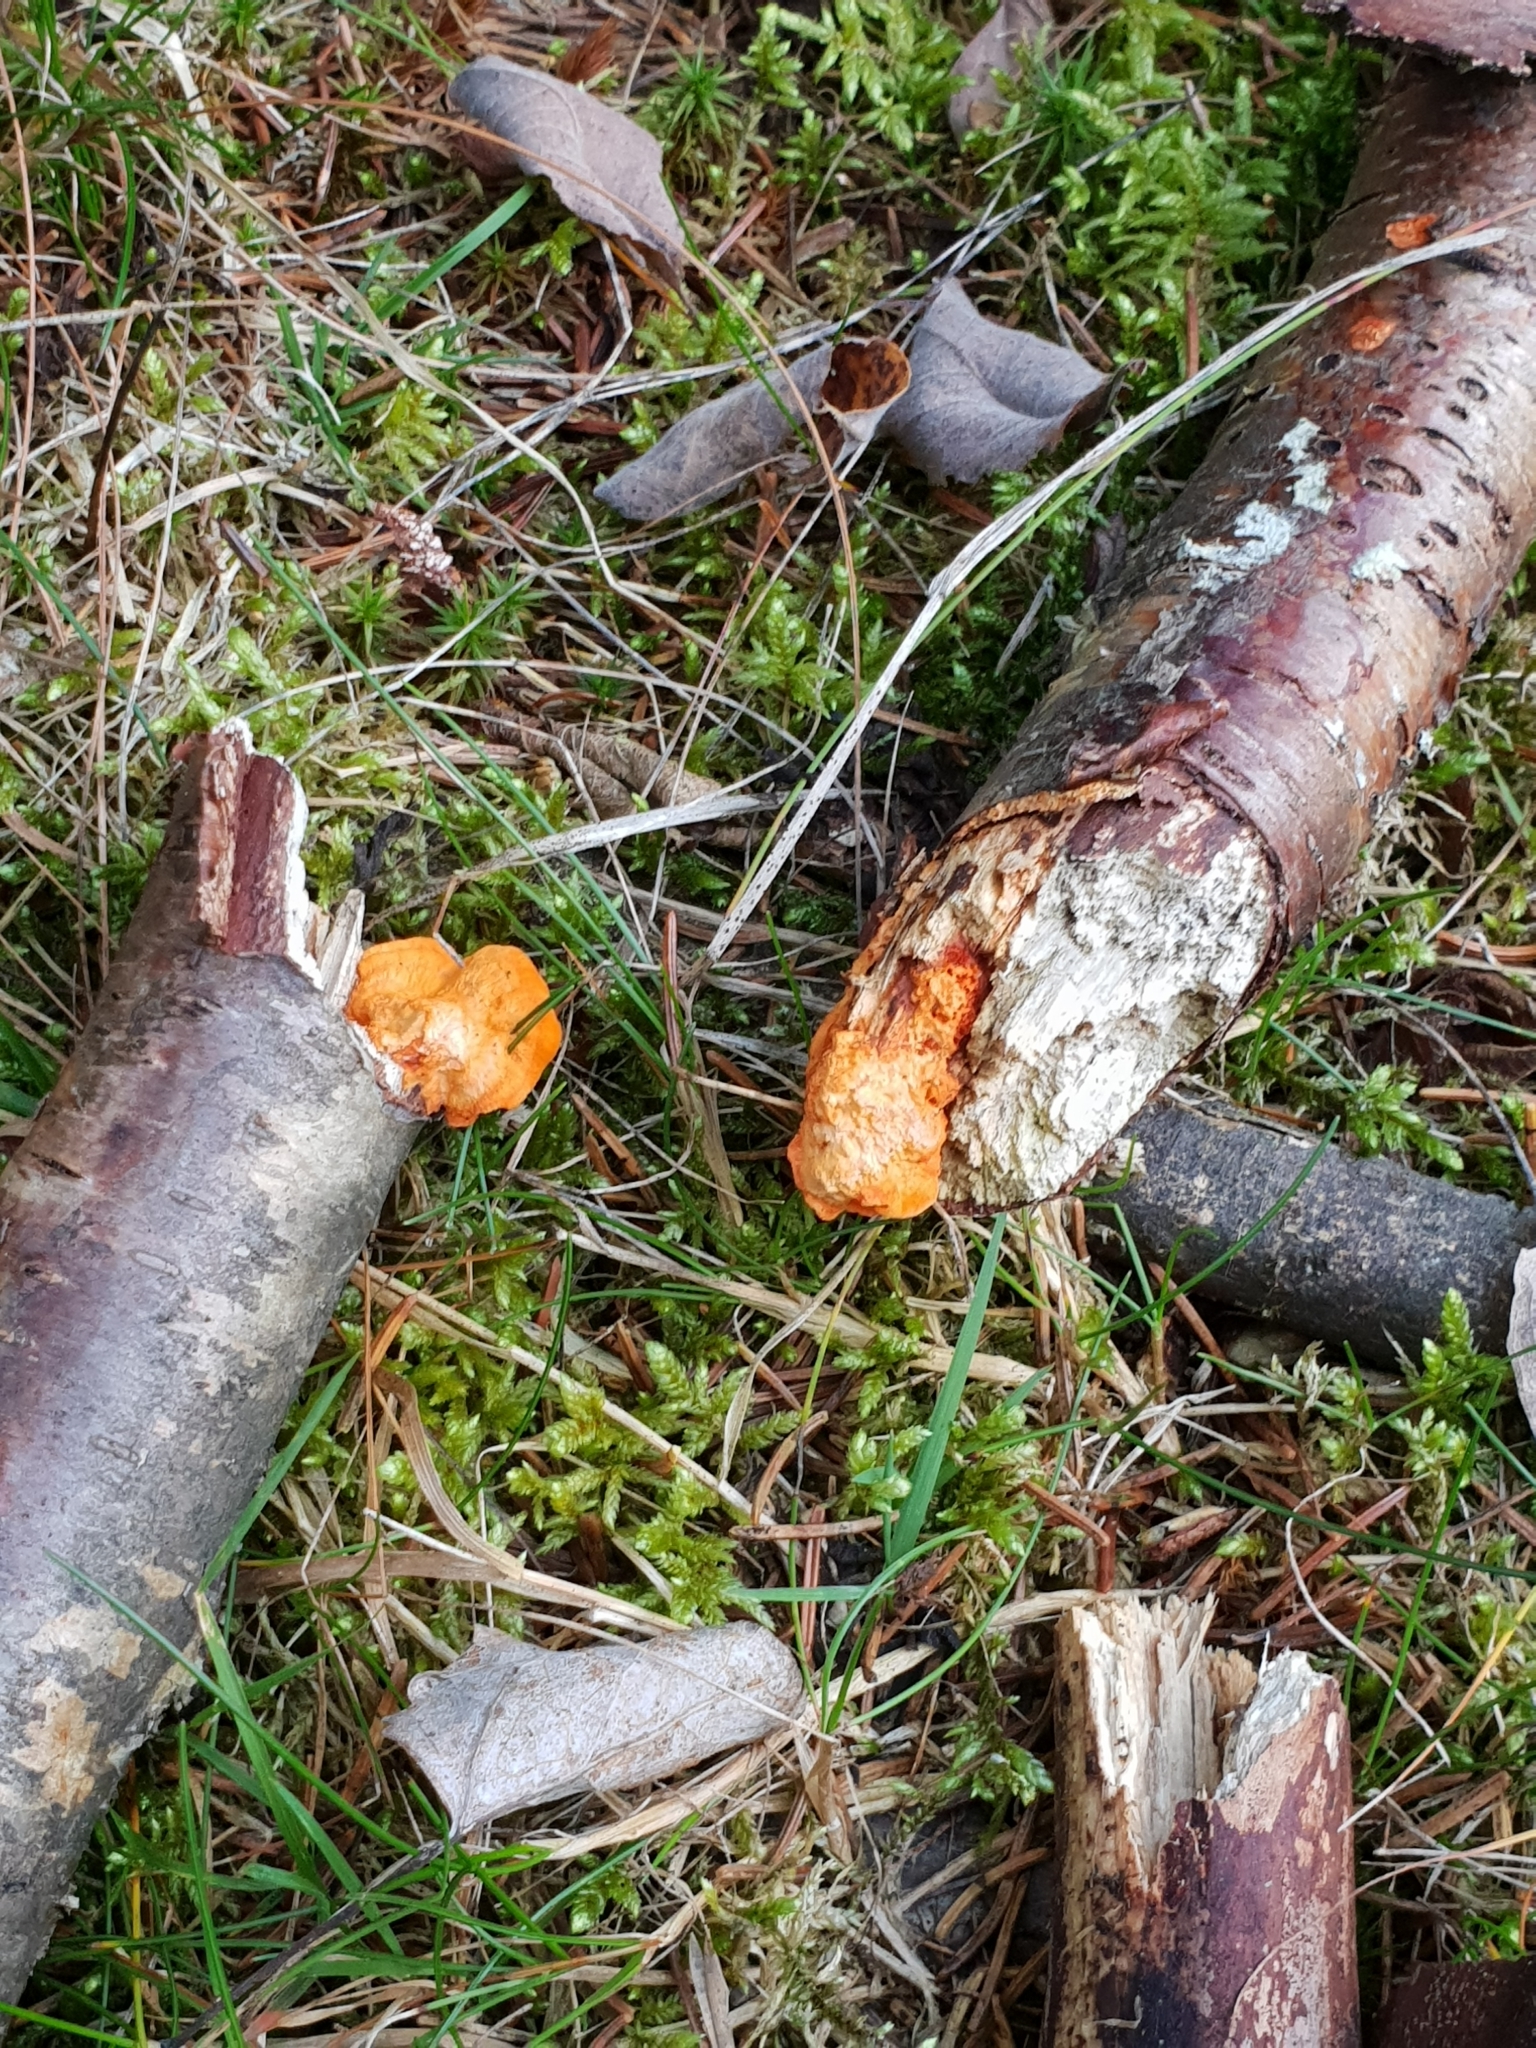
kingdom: Fungi
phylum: Basidiomycota
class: Agaricomycetes
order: Polyporales
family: Polyporaceae
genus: Trametes
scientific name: Trametes cinnabarina
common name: Northern cinnabar polypore
